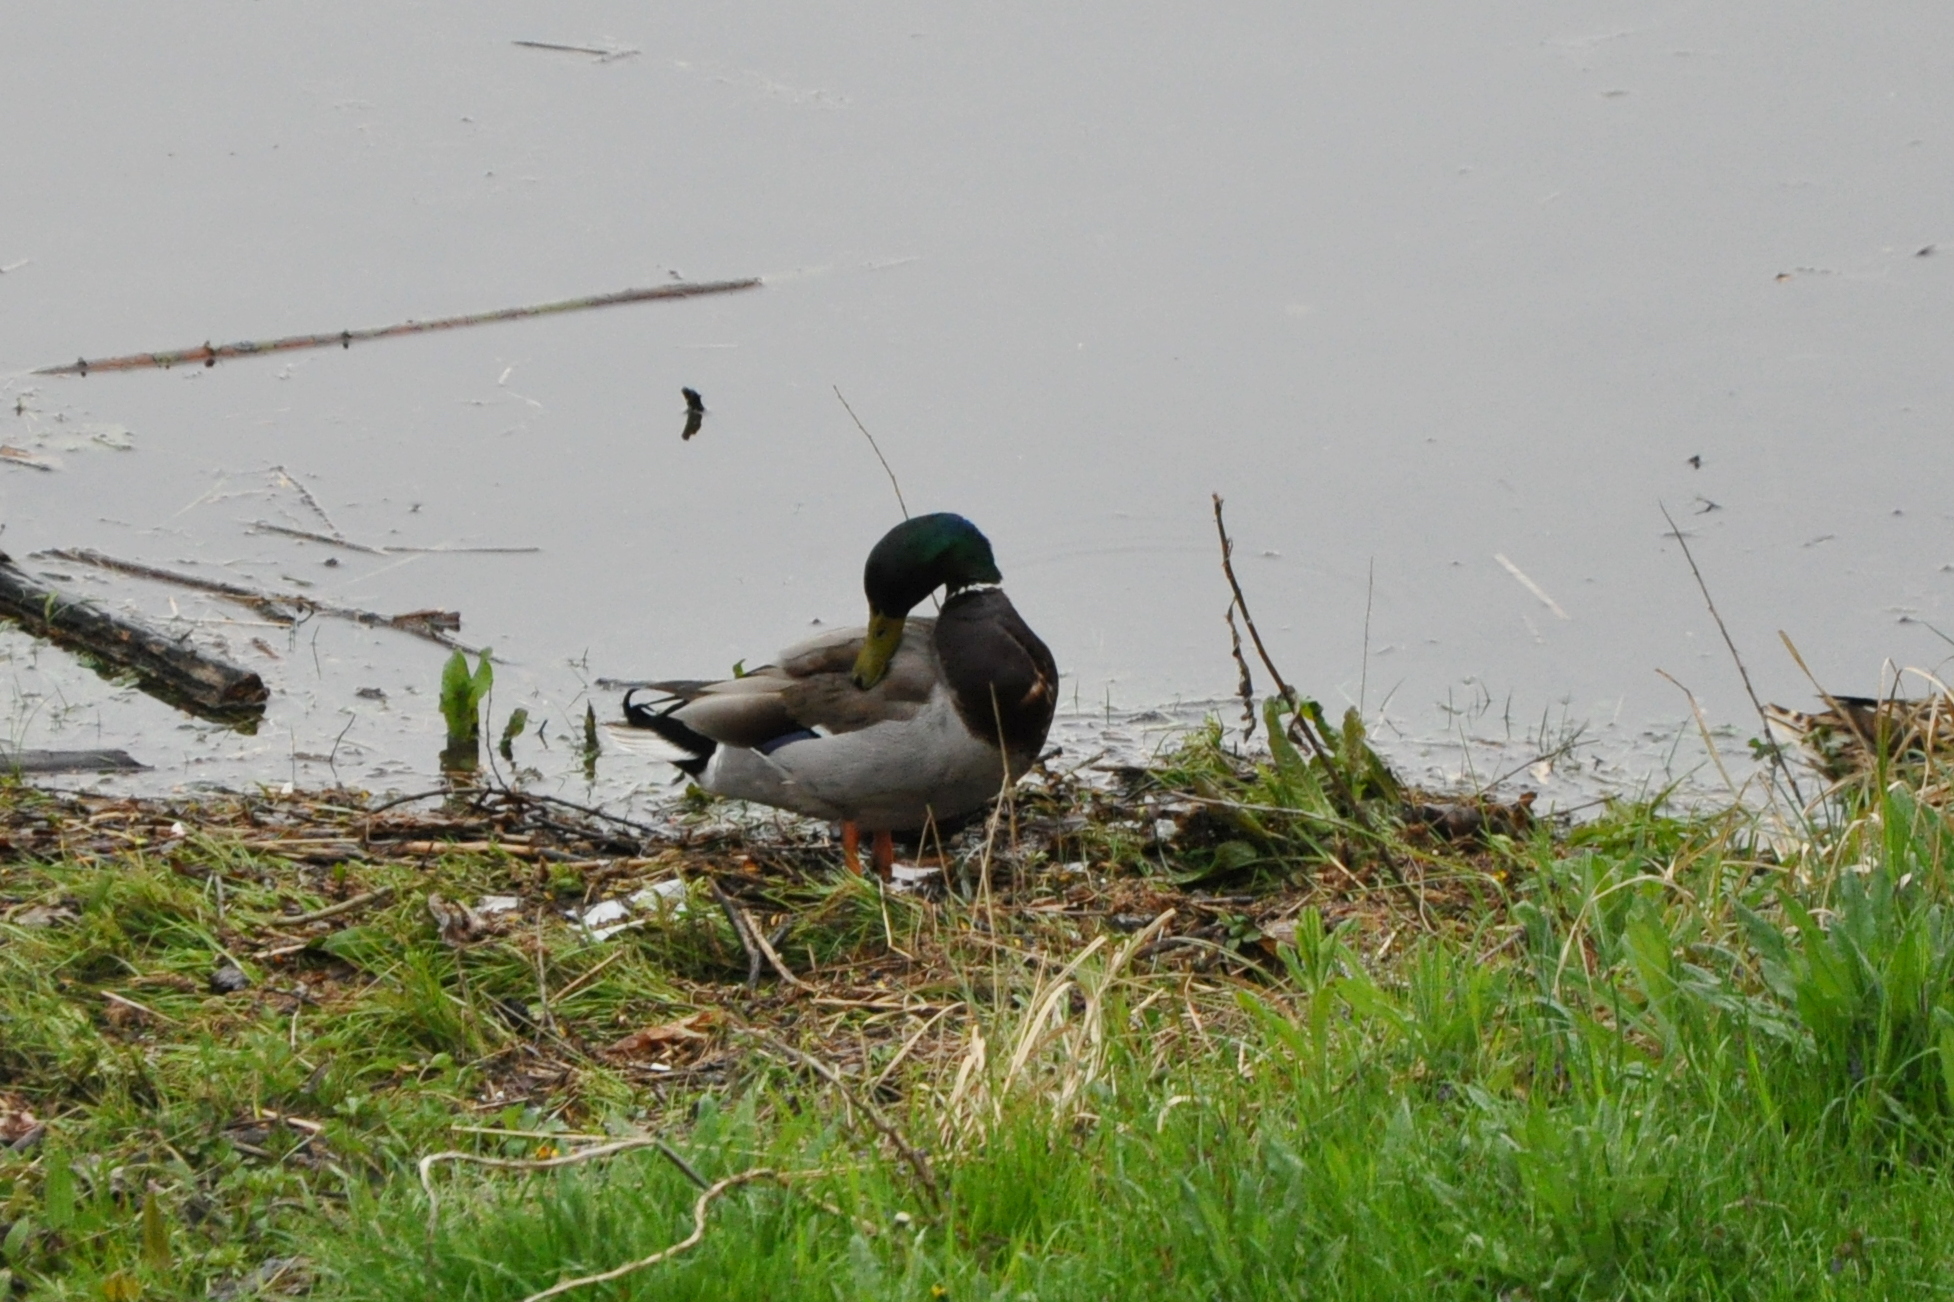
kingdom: Animalia
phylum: Chordata
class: Aves
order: Anseriformes
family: Anatidae
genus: Anas
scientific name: Anas platyrhynchos
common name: Mallard
